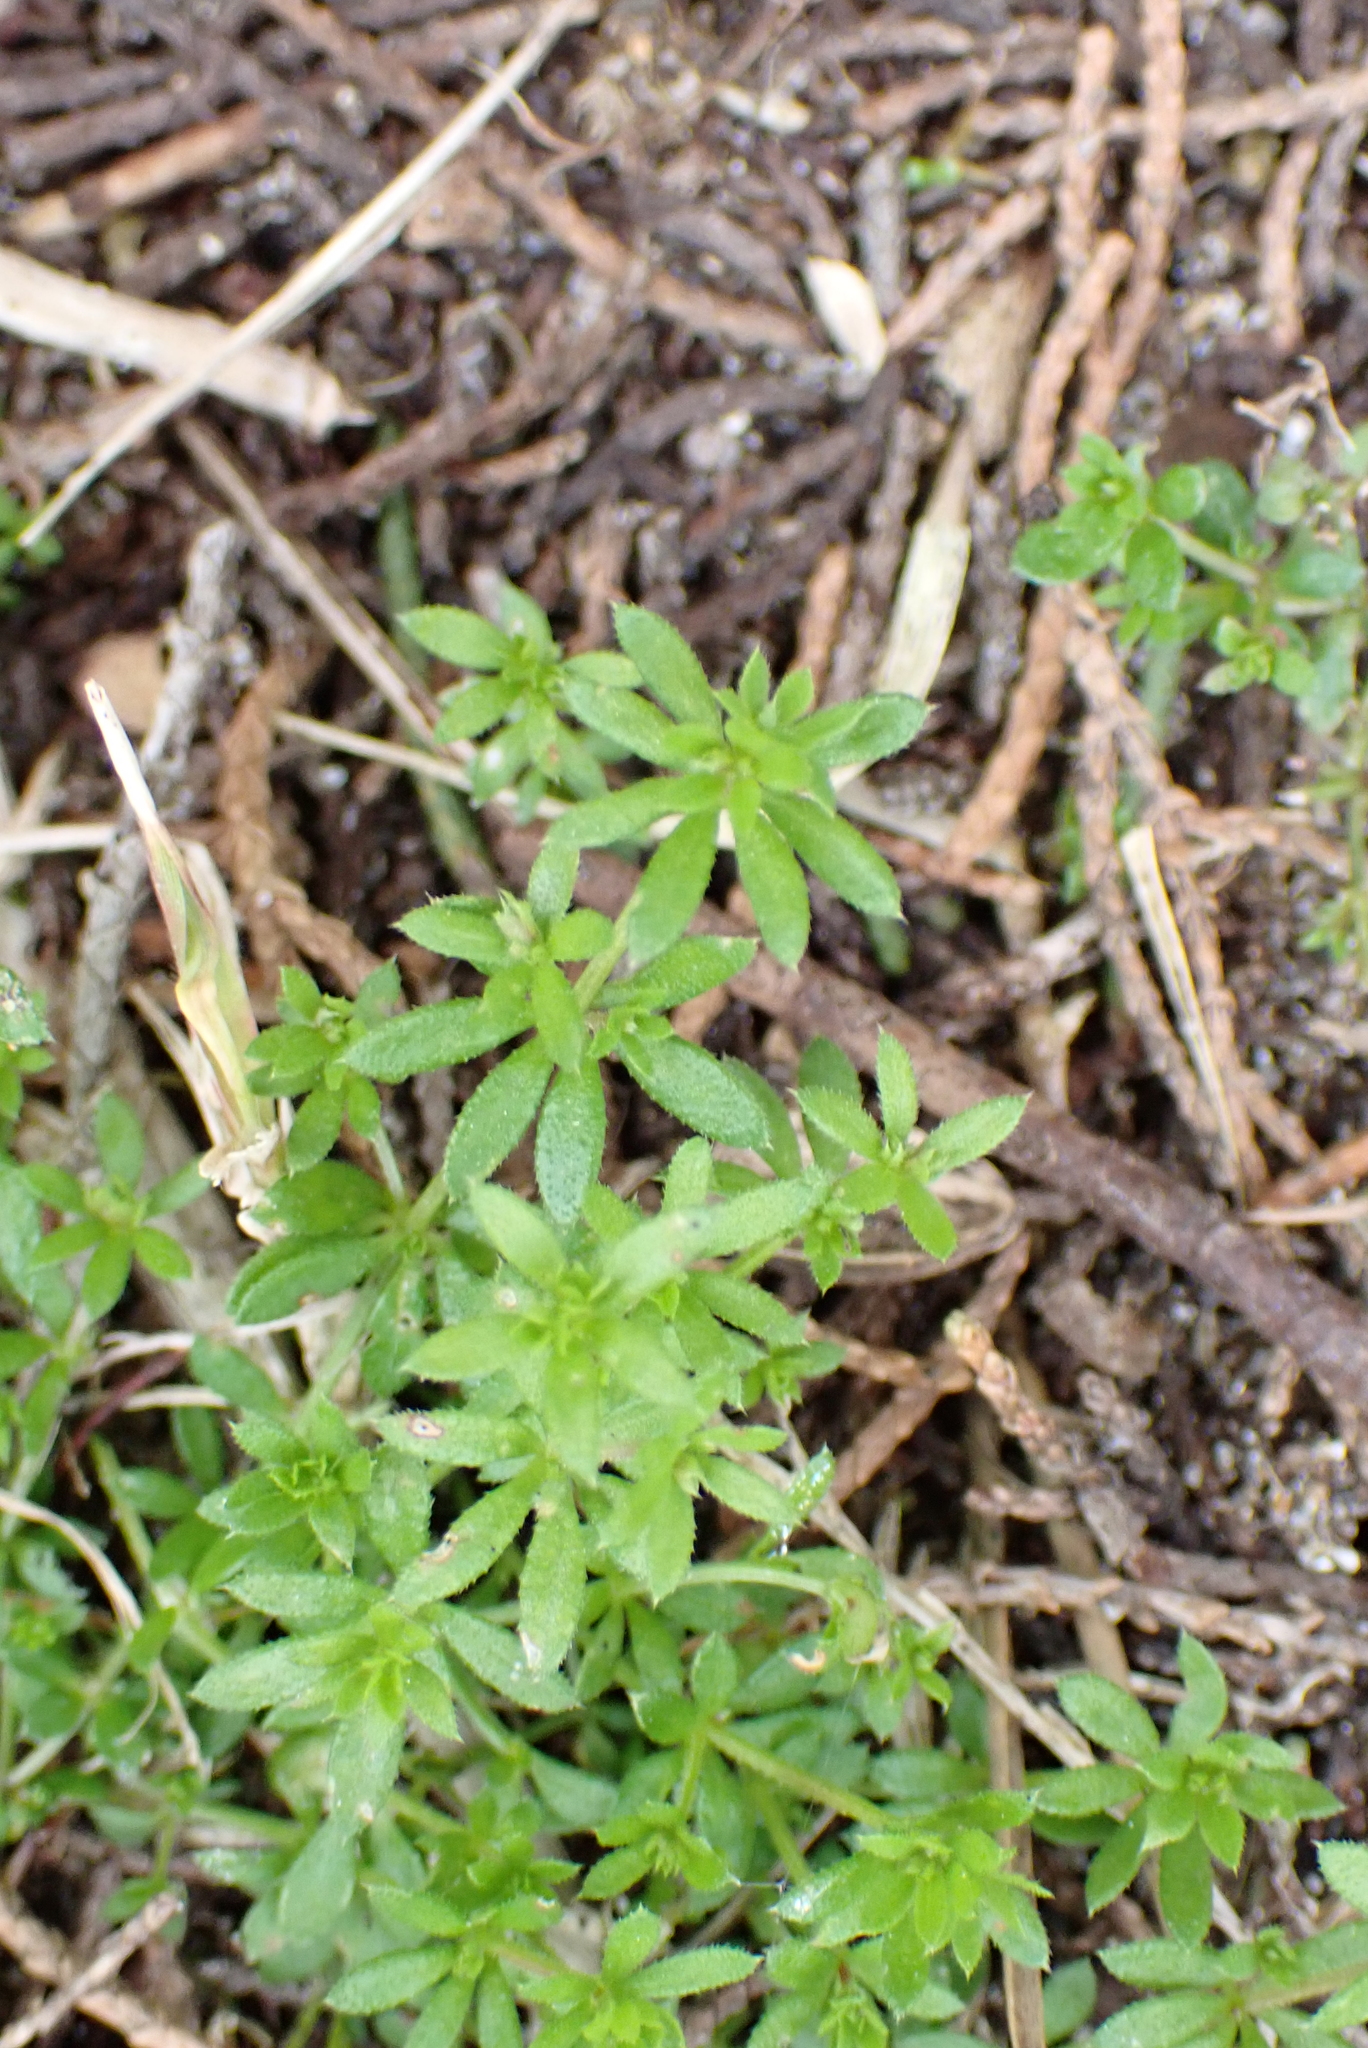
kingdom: Plantae
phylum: Tracheophyta
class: Magnoliopsida
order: Gentianales
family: Rubiaceae
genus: Sherardia
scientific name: Sherardia arvensis
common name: Field madder
